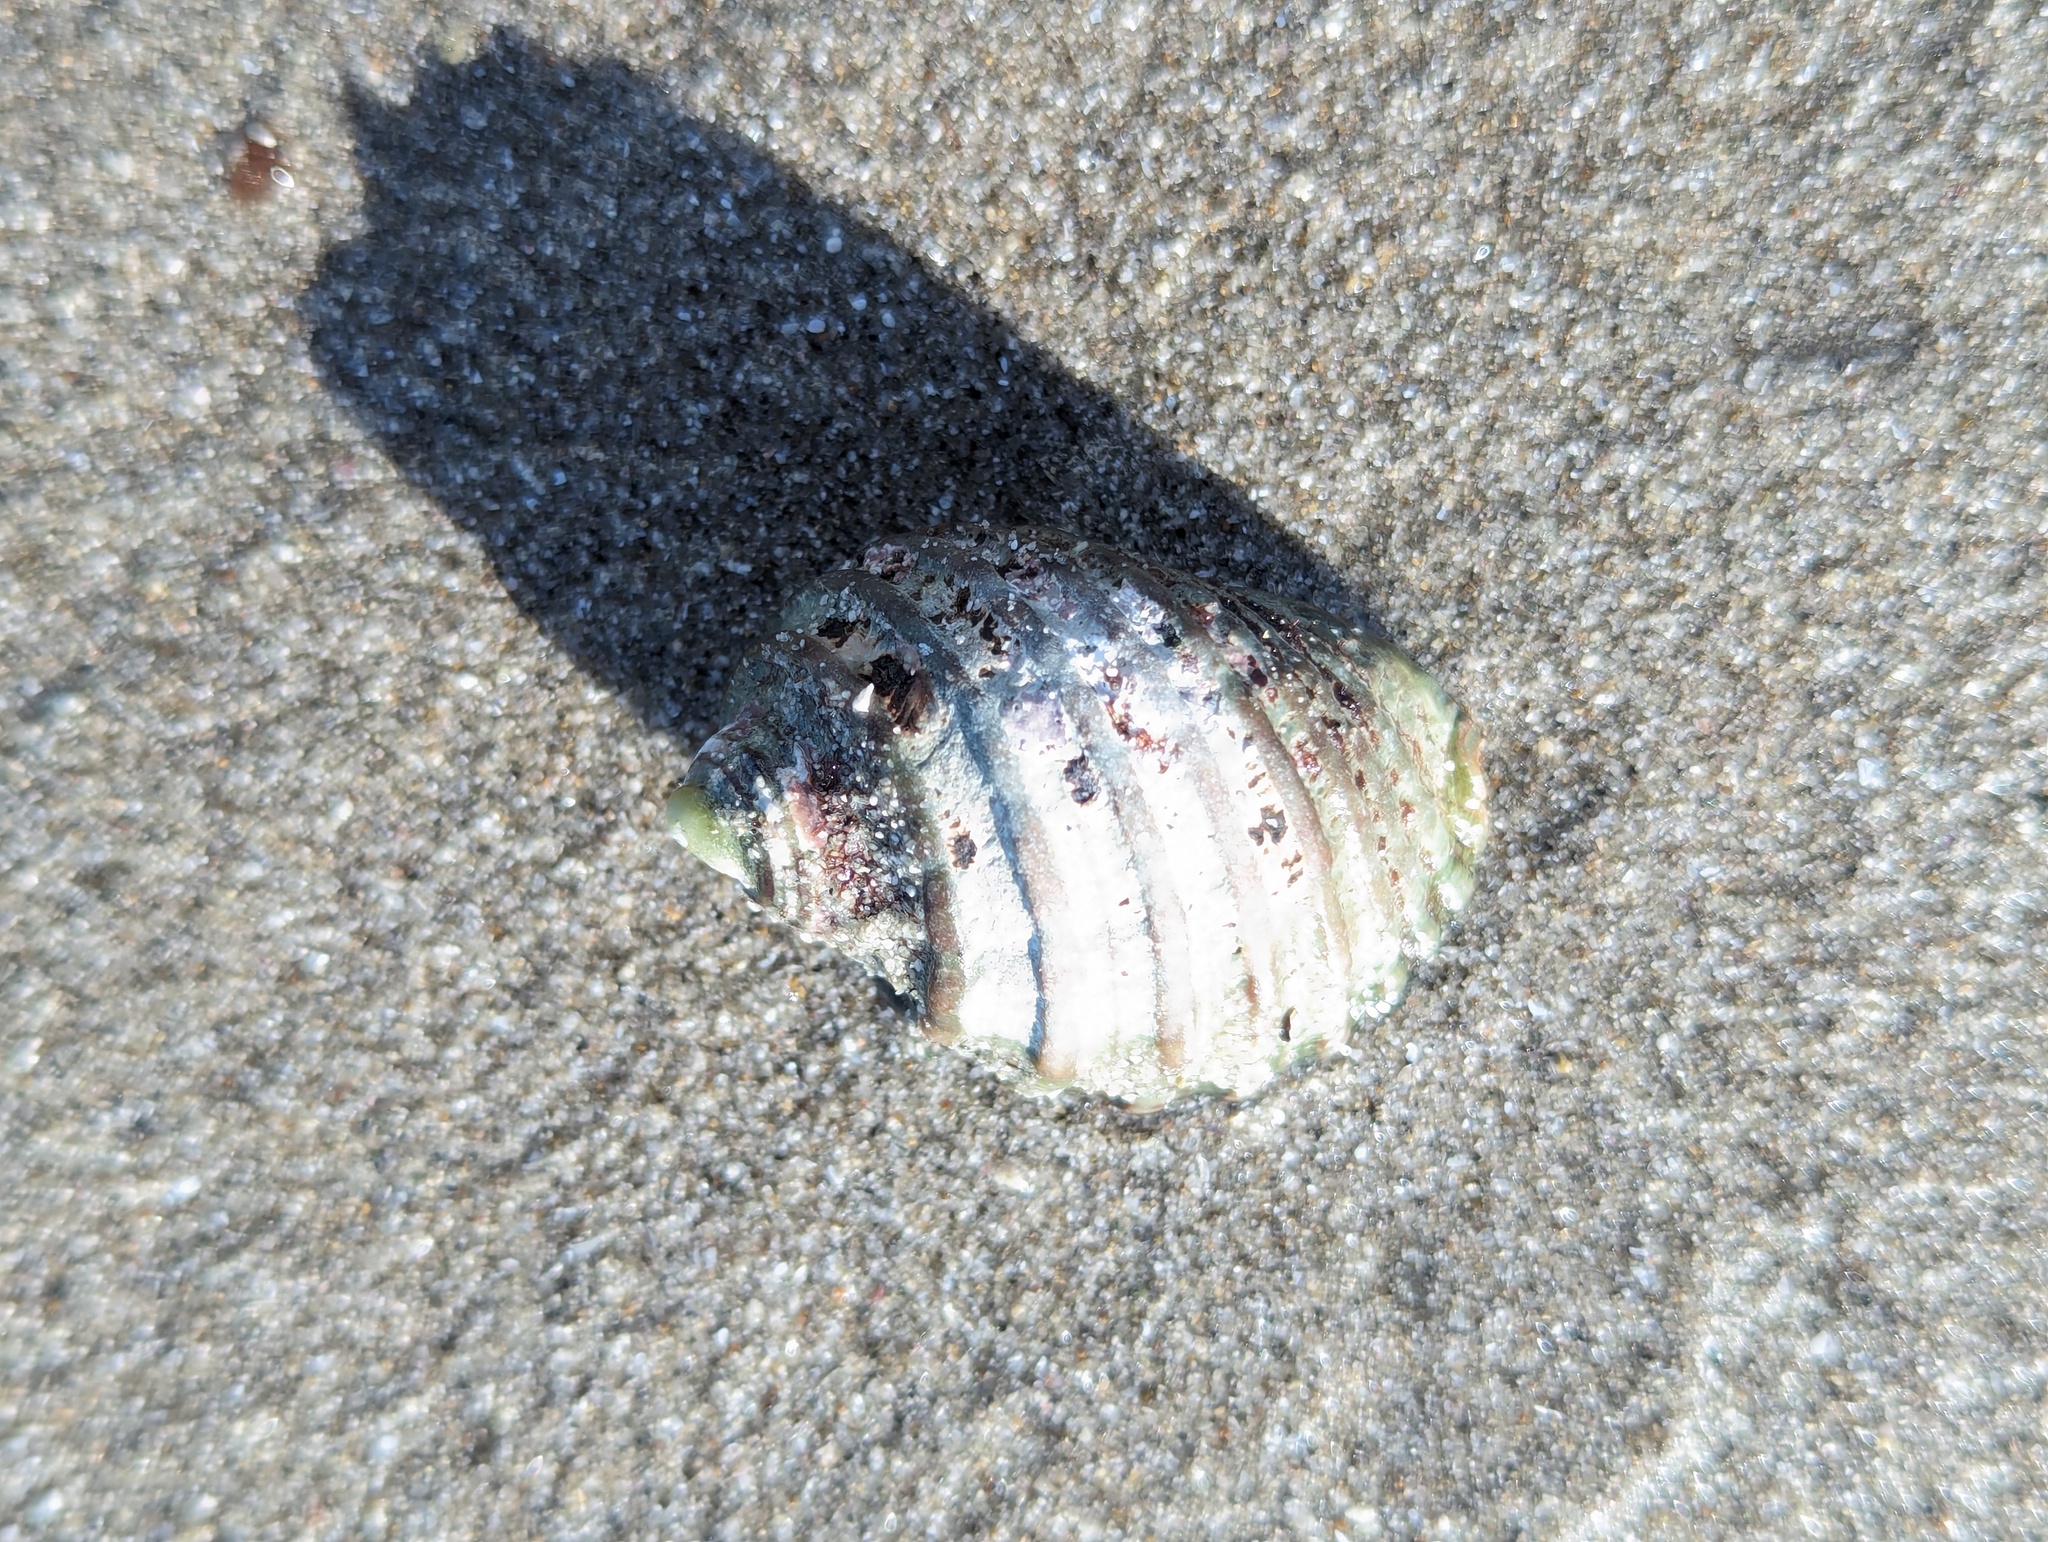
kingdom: Animalia
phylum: Mollusca
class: Gastropoda
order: Neogastropoda
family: Muricidae
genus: Dicathais
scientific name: Dicathais orbita
